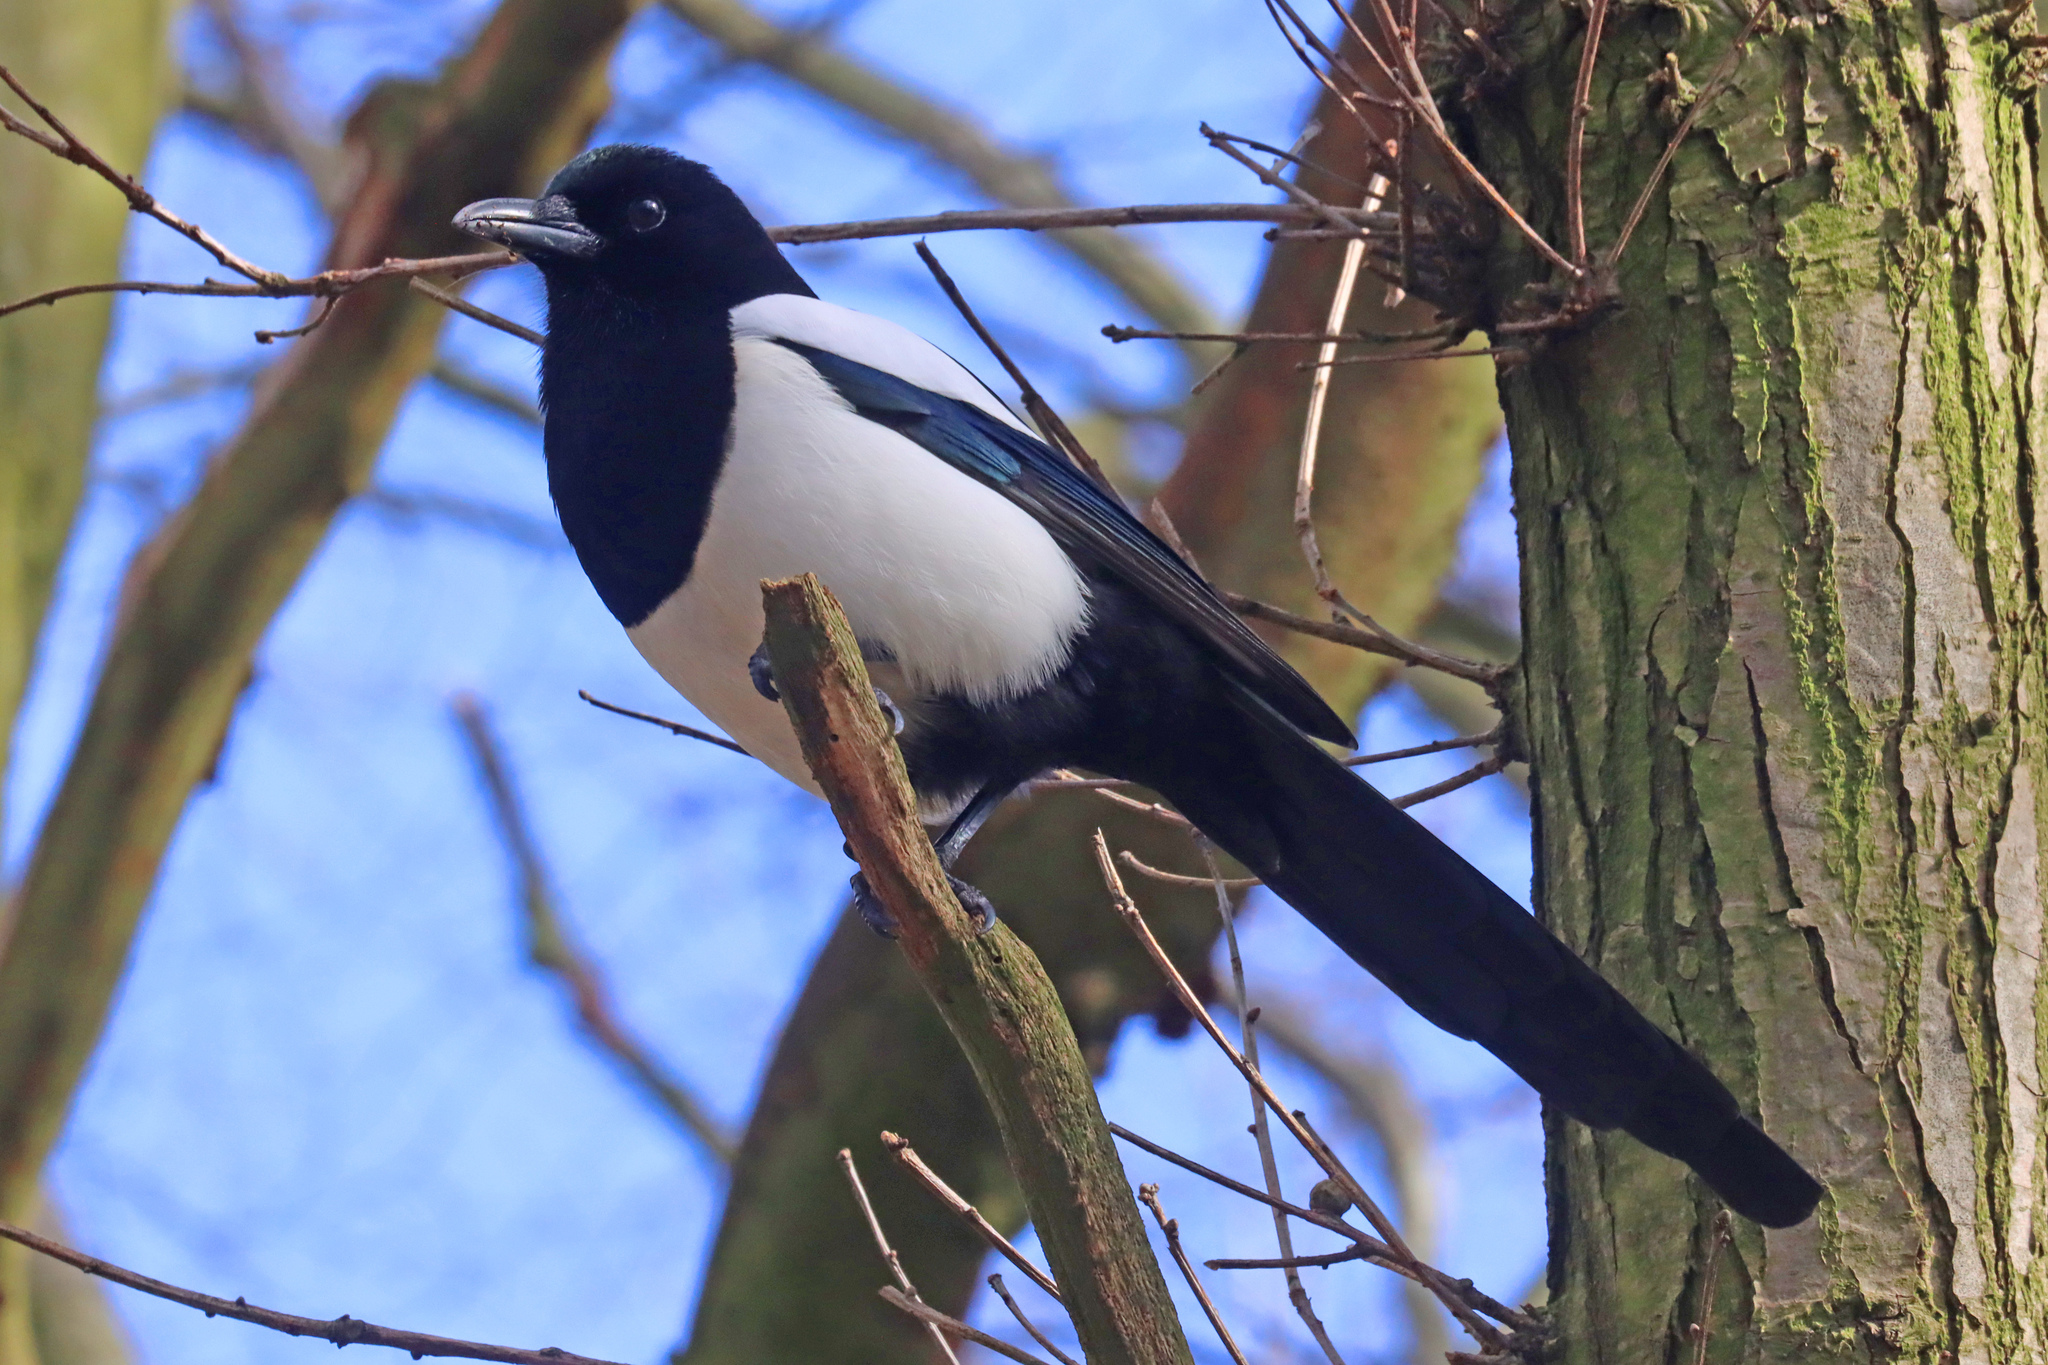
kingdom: Animalia
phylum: Chordata
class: Aves
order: Passeriformes
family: Corvidae
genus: Pica
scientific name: Pica pica
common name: Eurasian magpie
